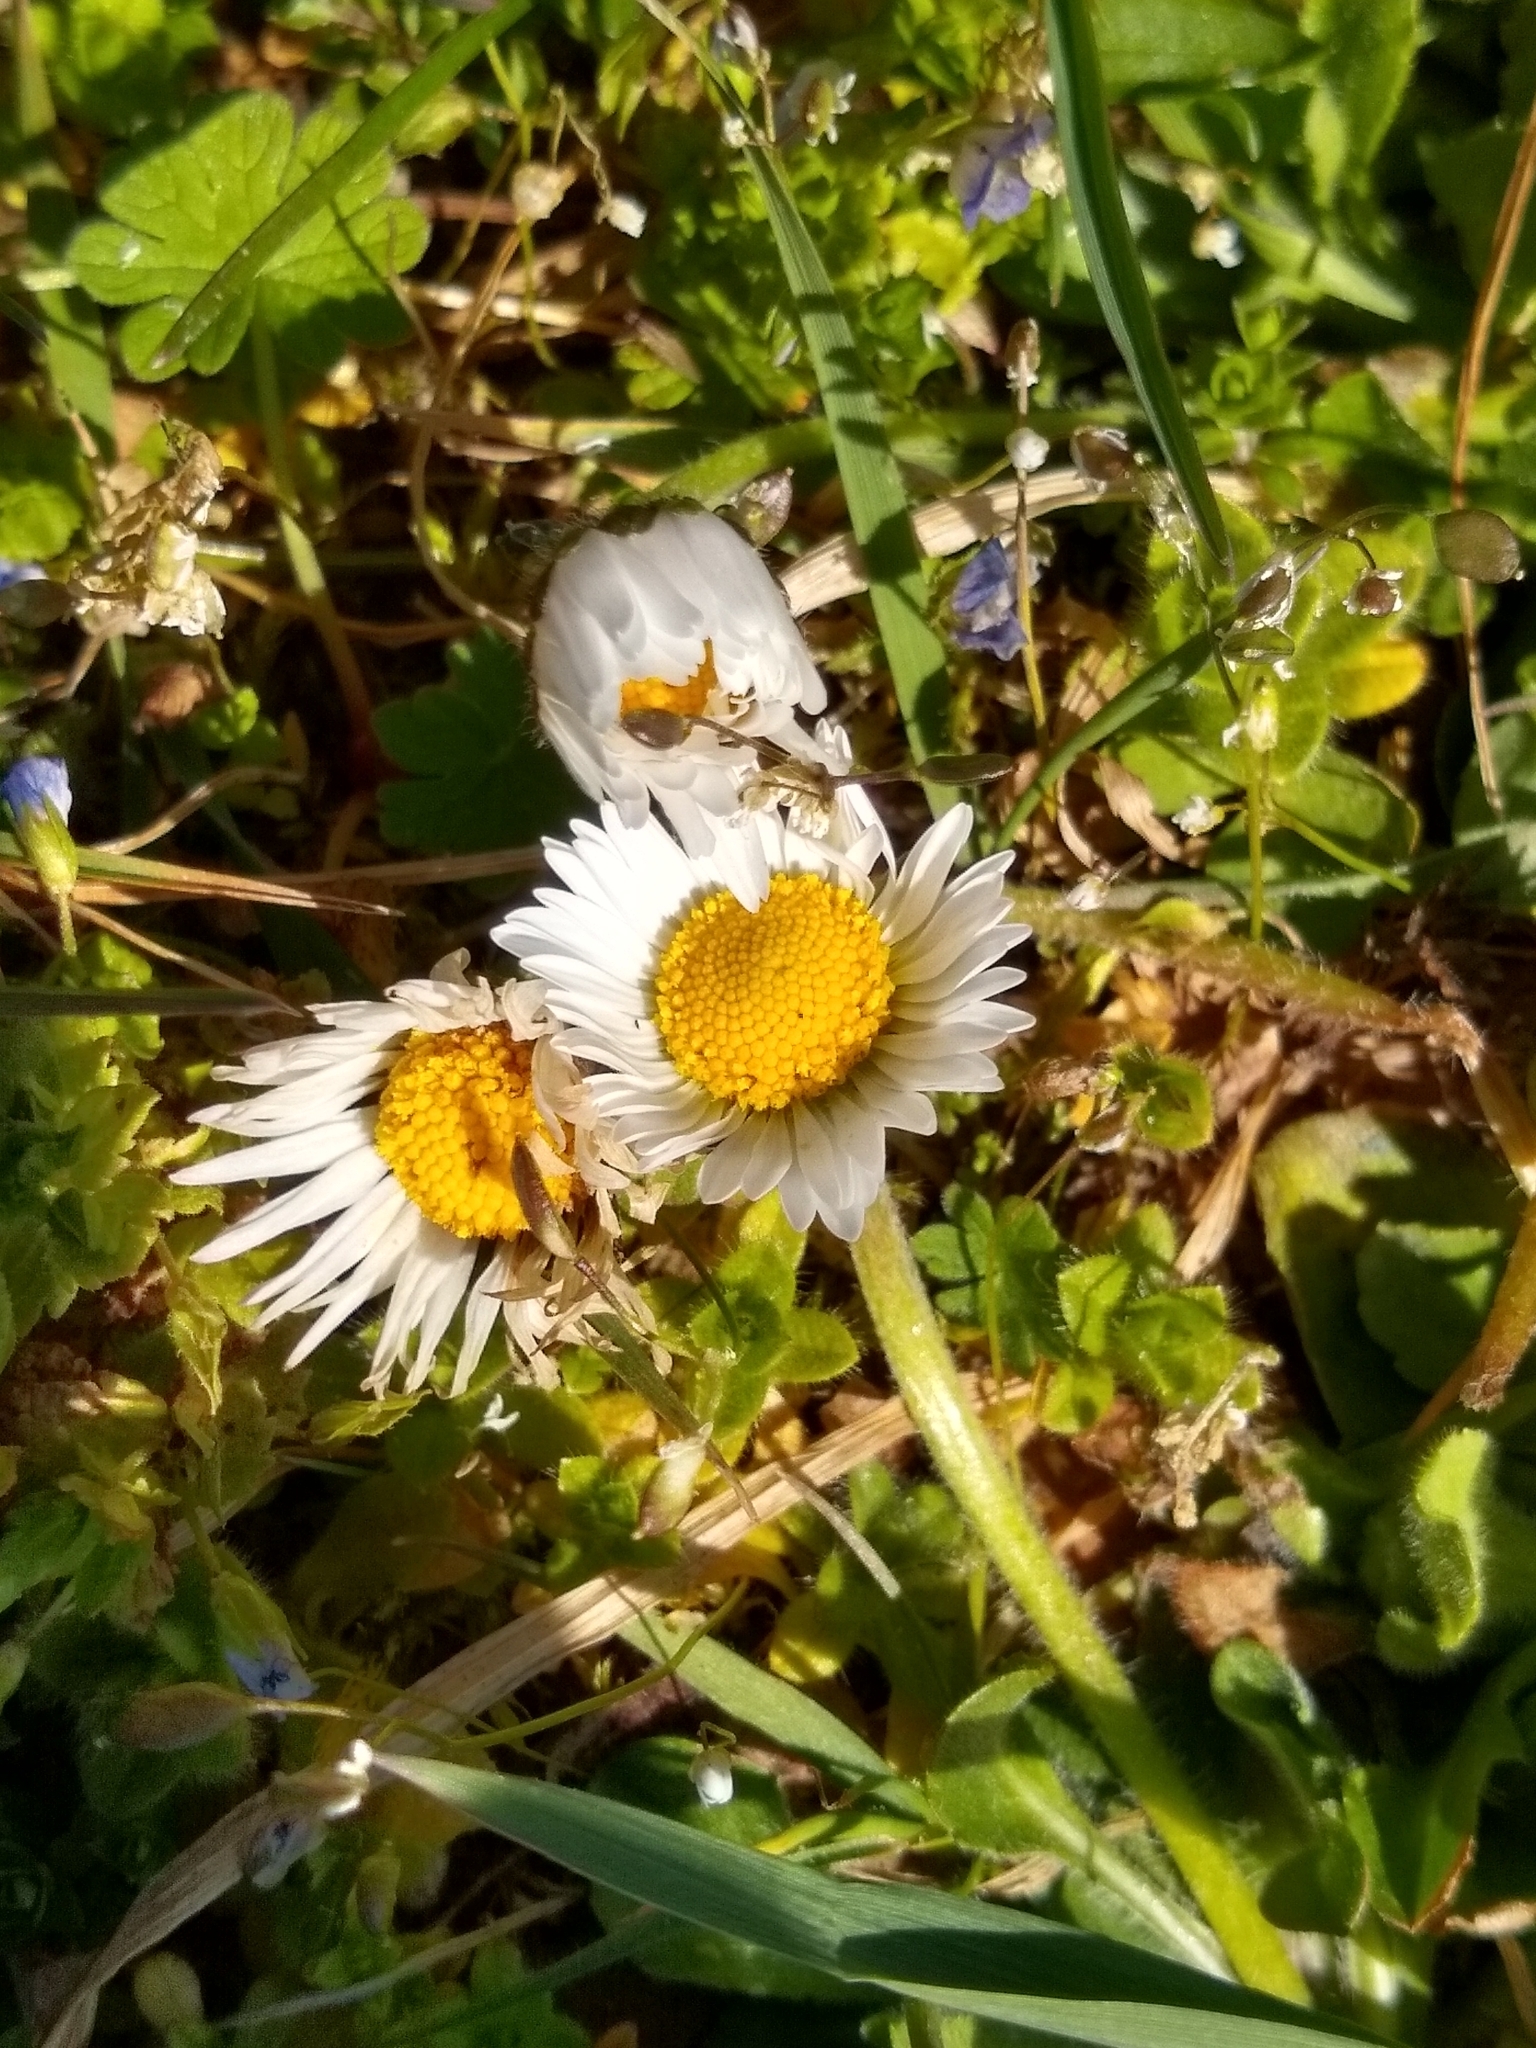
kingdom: Plantae
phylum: Tracheophyta
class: Magnoliopsida
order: Asterales
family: Asteraceae
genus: Bellis
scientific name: Bellis perennis
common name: Lawndaisy
